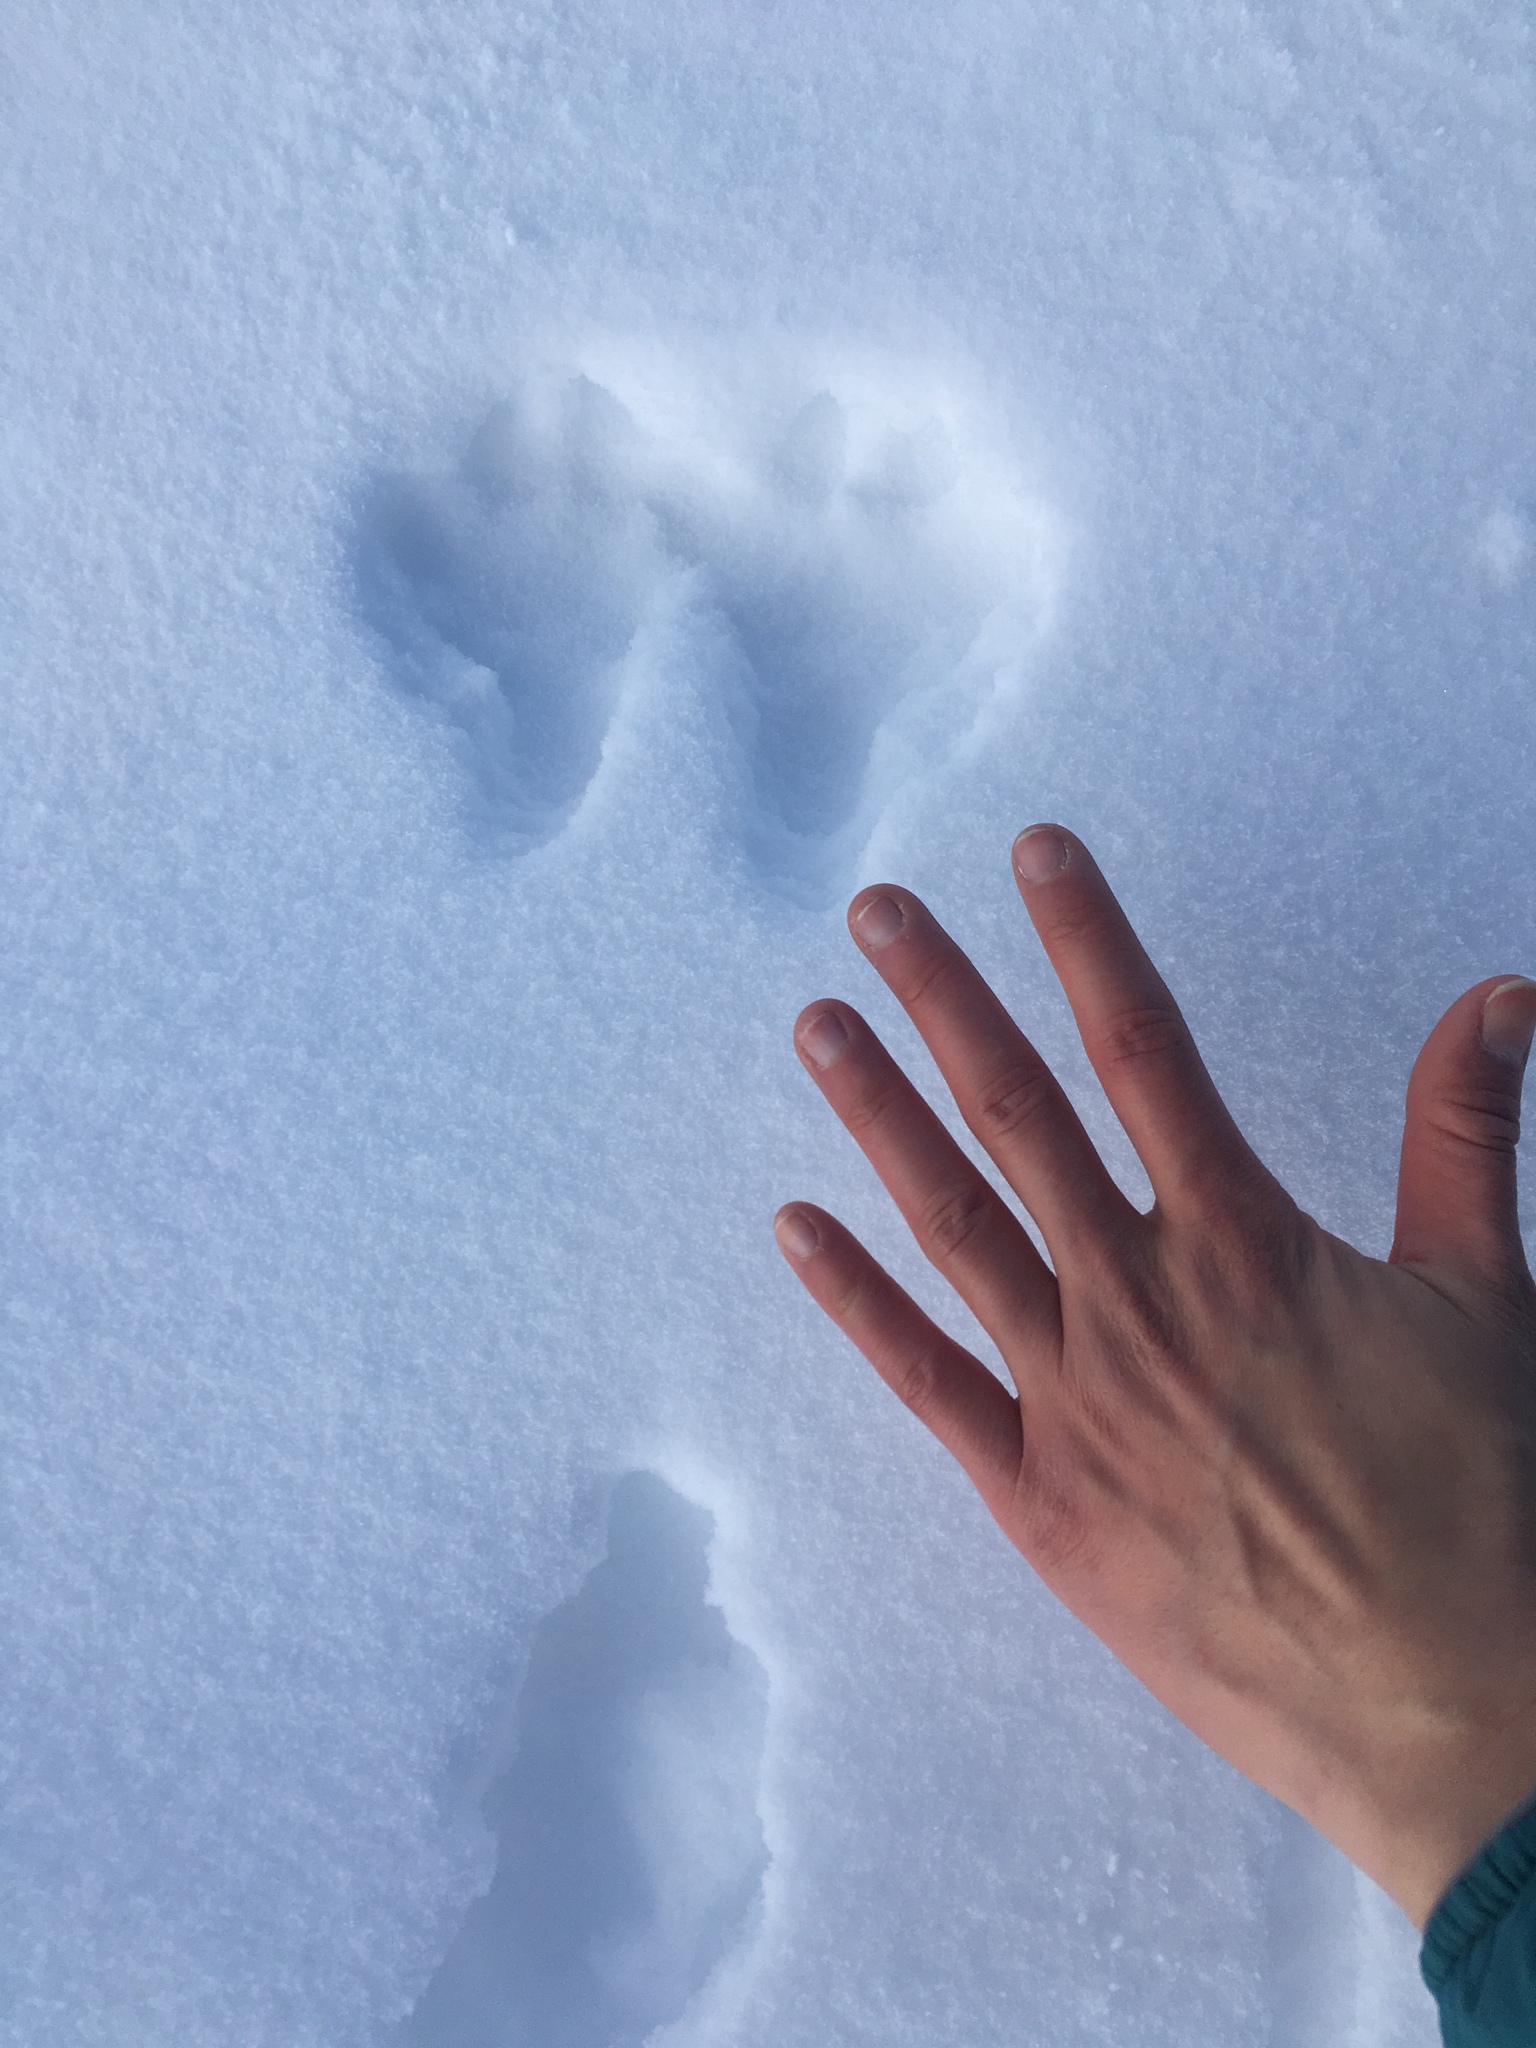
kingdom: Animalia
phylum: Chordata
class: Mammalia
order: Lagomorpha
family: Leporidae
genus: Lepus
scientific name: Lepus americanus
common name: Snowshoe hare
